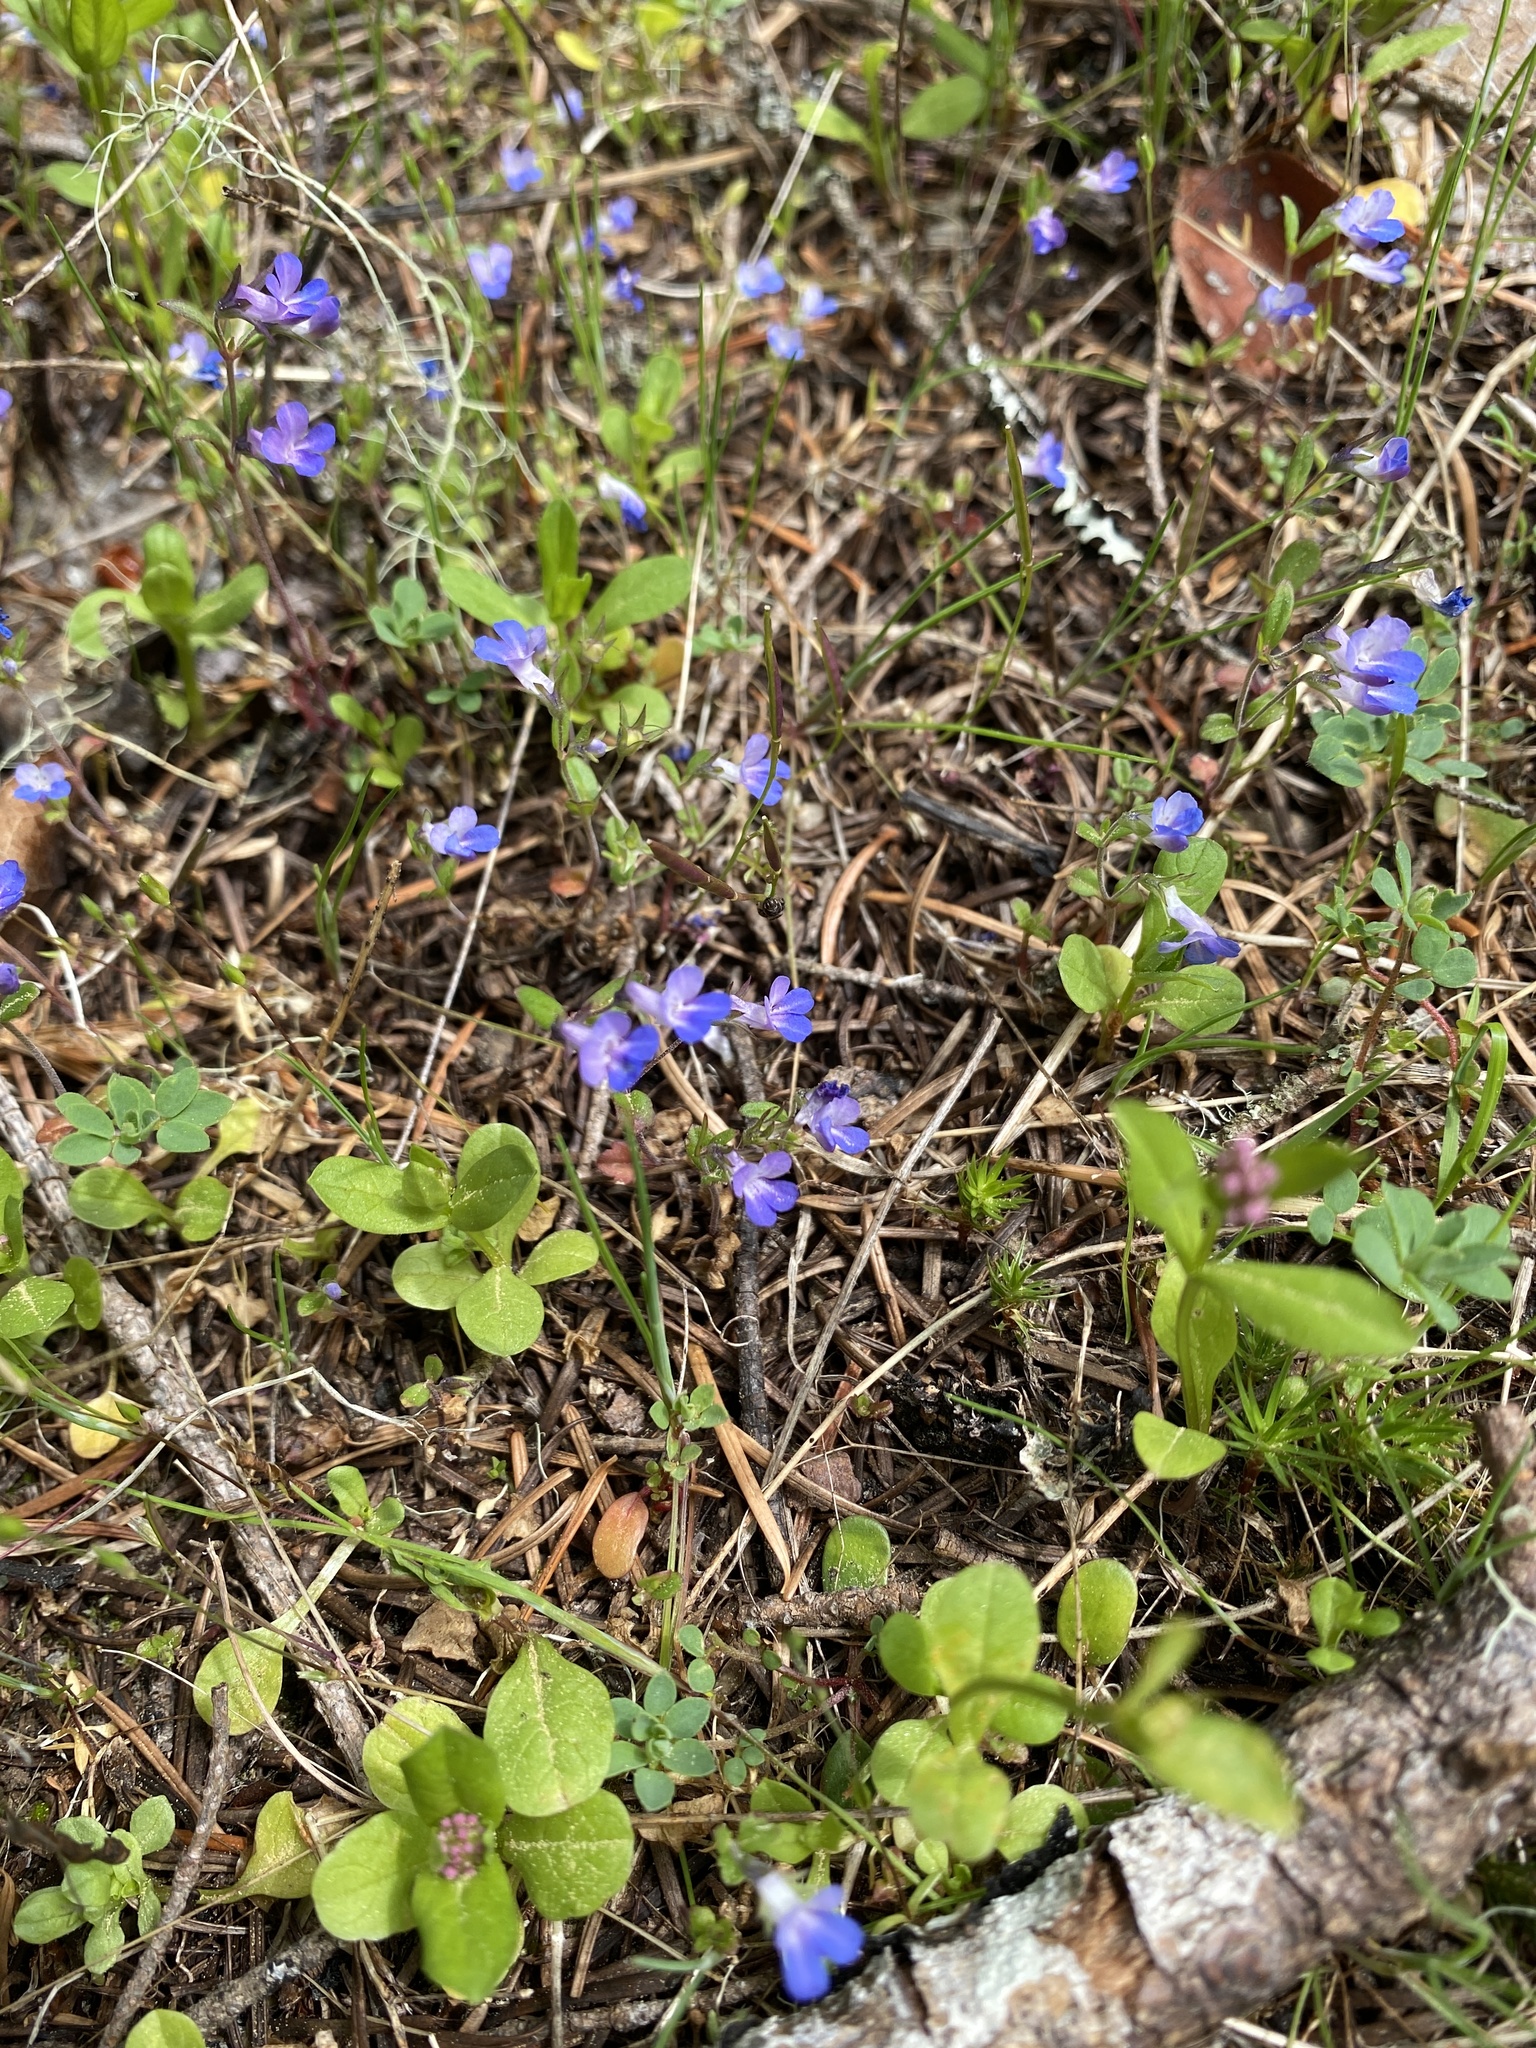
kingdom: Plantae
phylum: Tracheophyta
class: Magnoliopsida
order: Lamiales
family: Plantaginaceae
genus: Collinsia
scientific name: Collinsia parviflora
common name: Blue-lips
